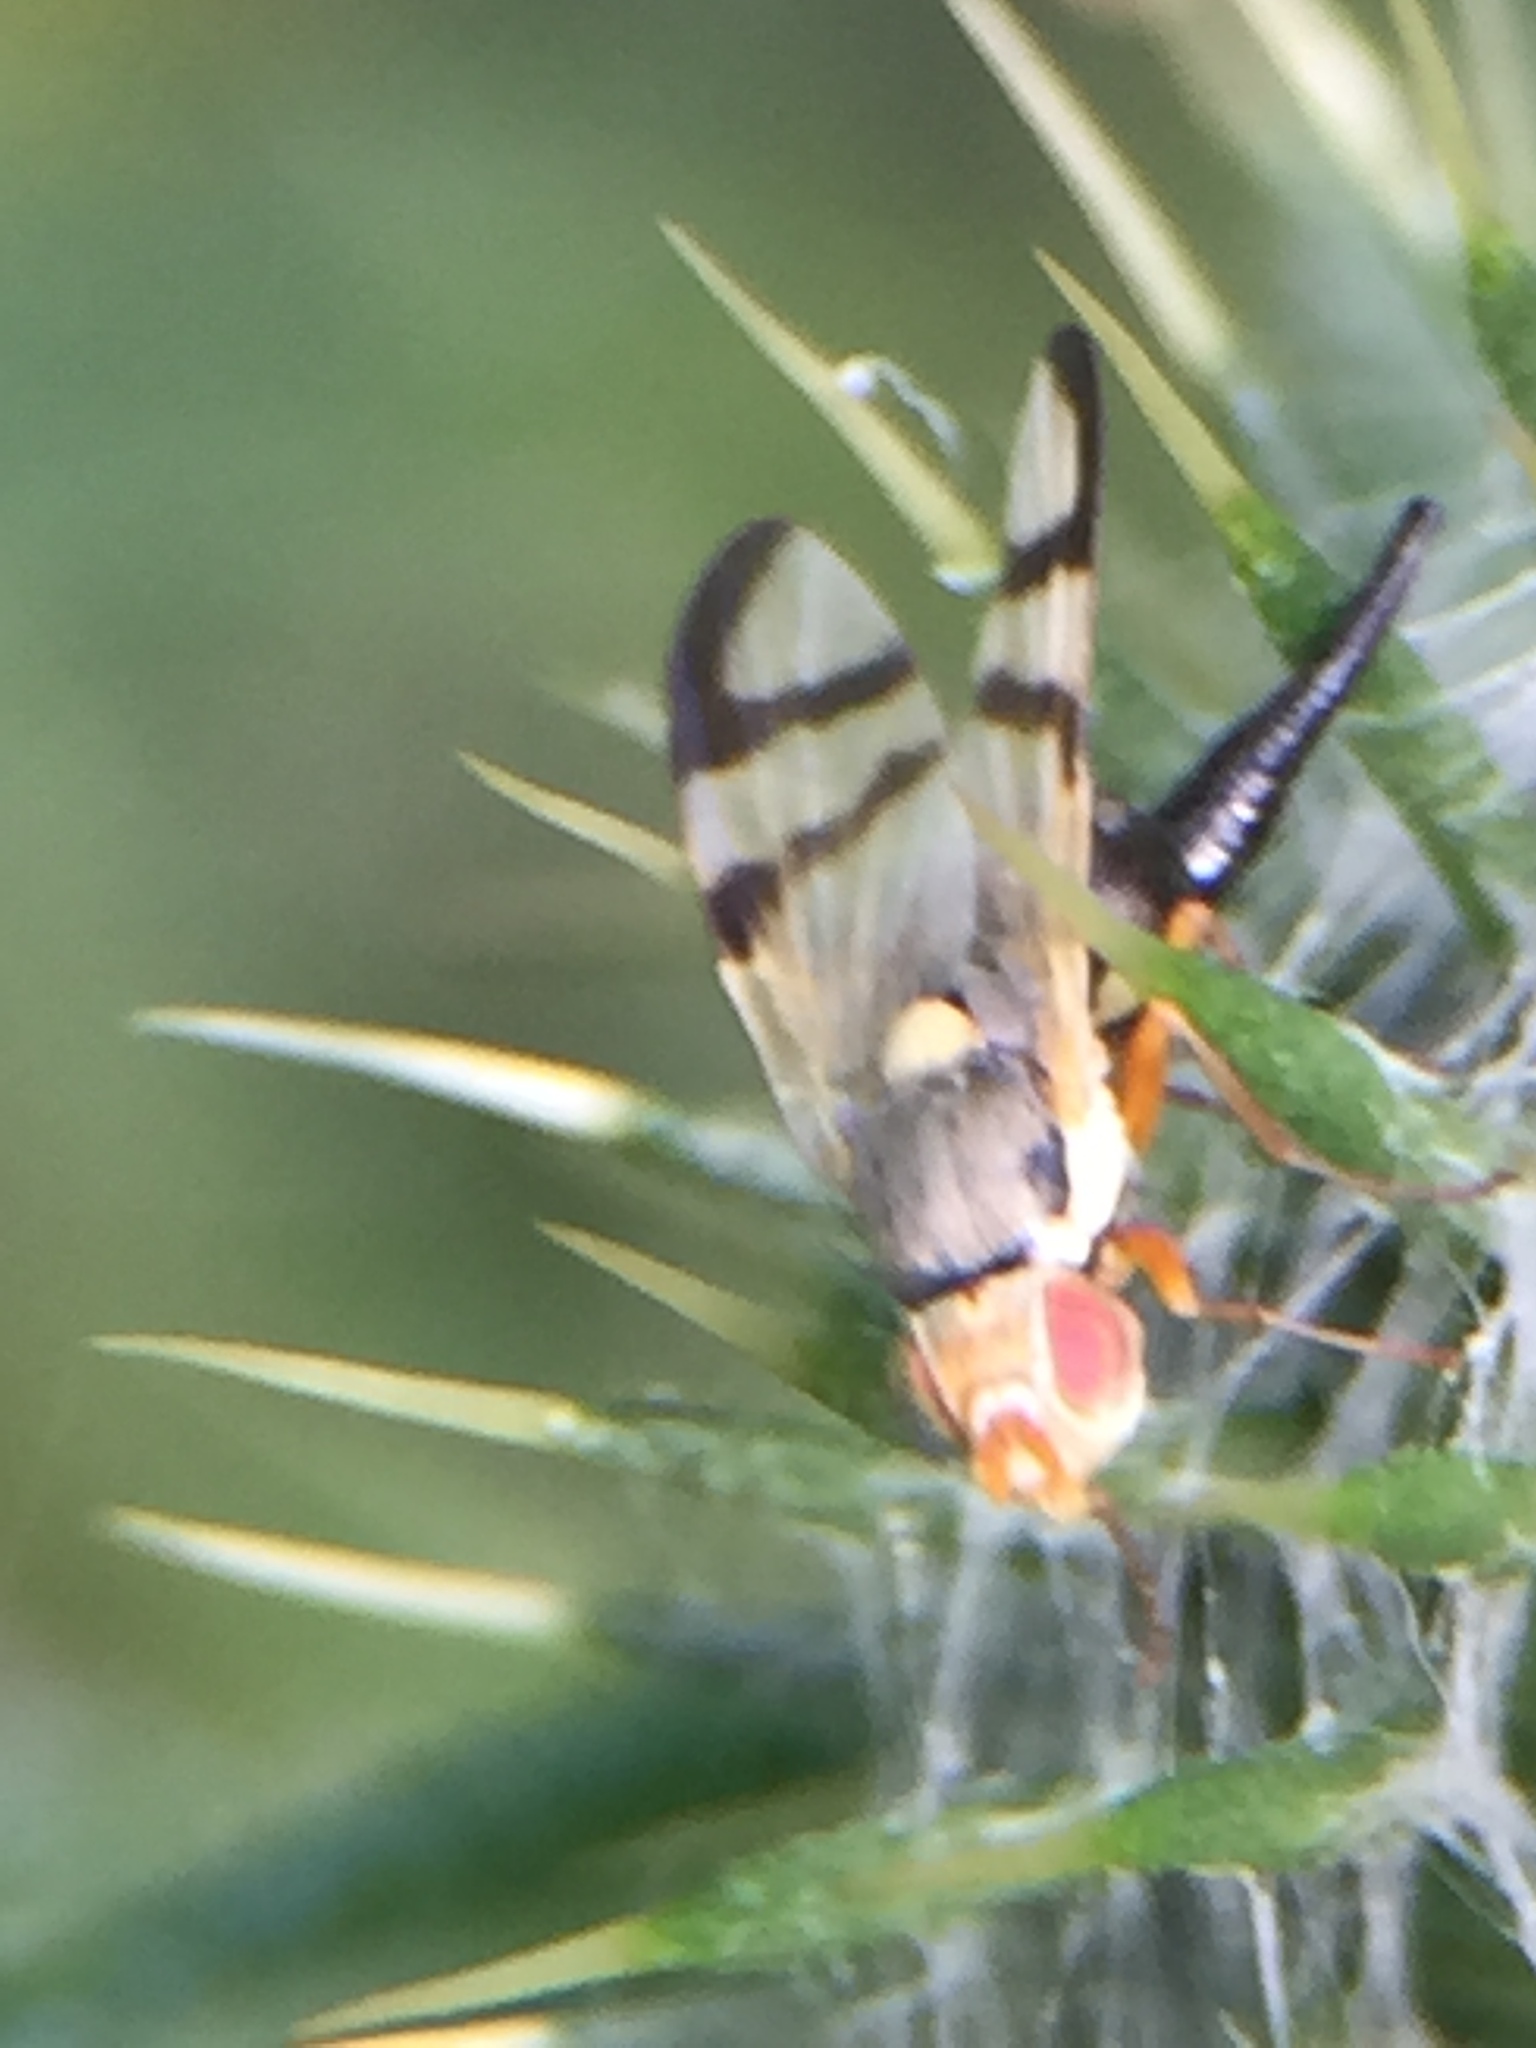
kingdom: Animalia
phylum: Arthropoda
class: Insecta
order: Diptera
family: Tephritidae
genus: Urophora
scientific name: Urophora stylata
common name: Fruit fly
